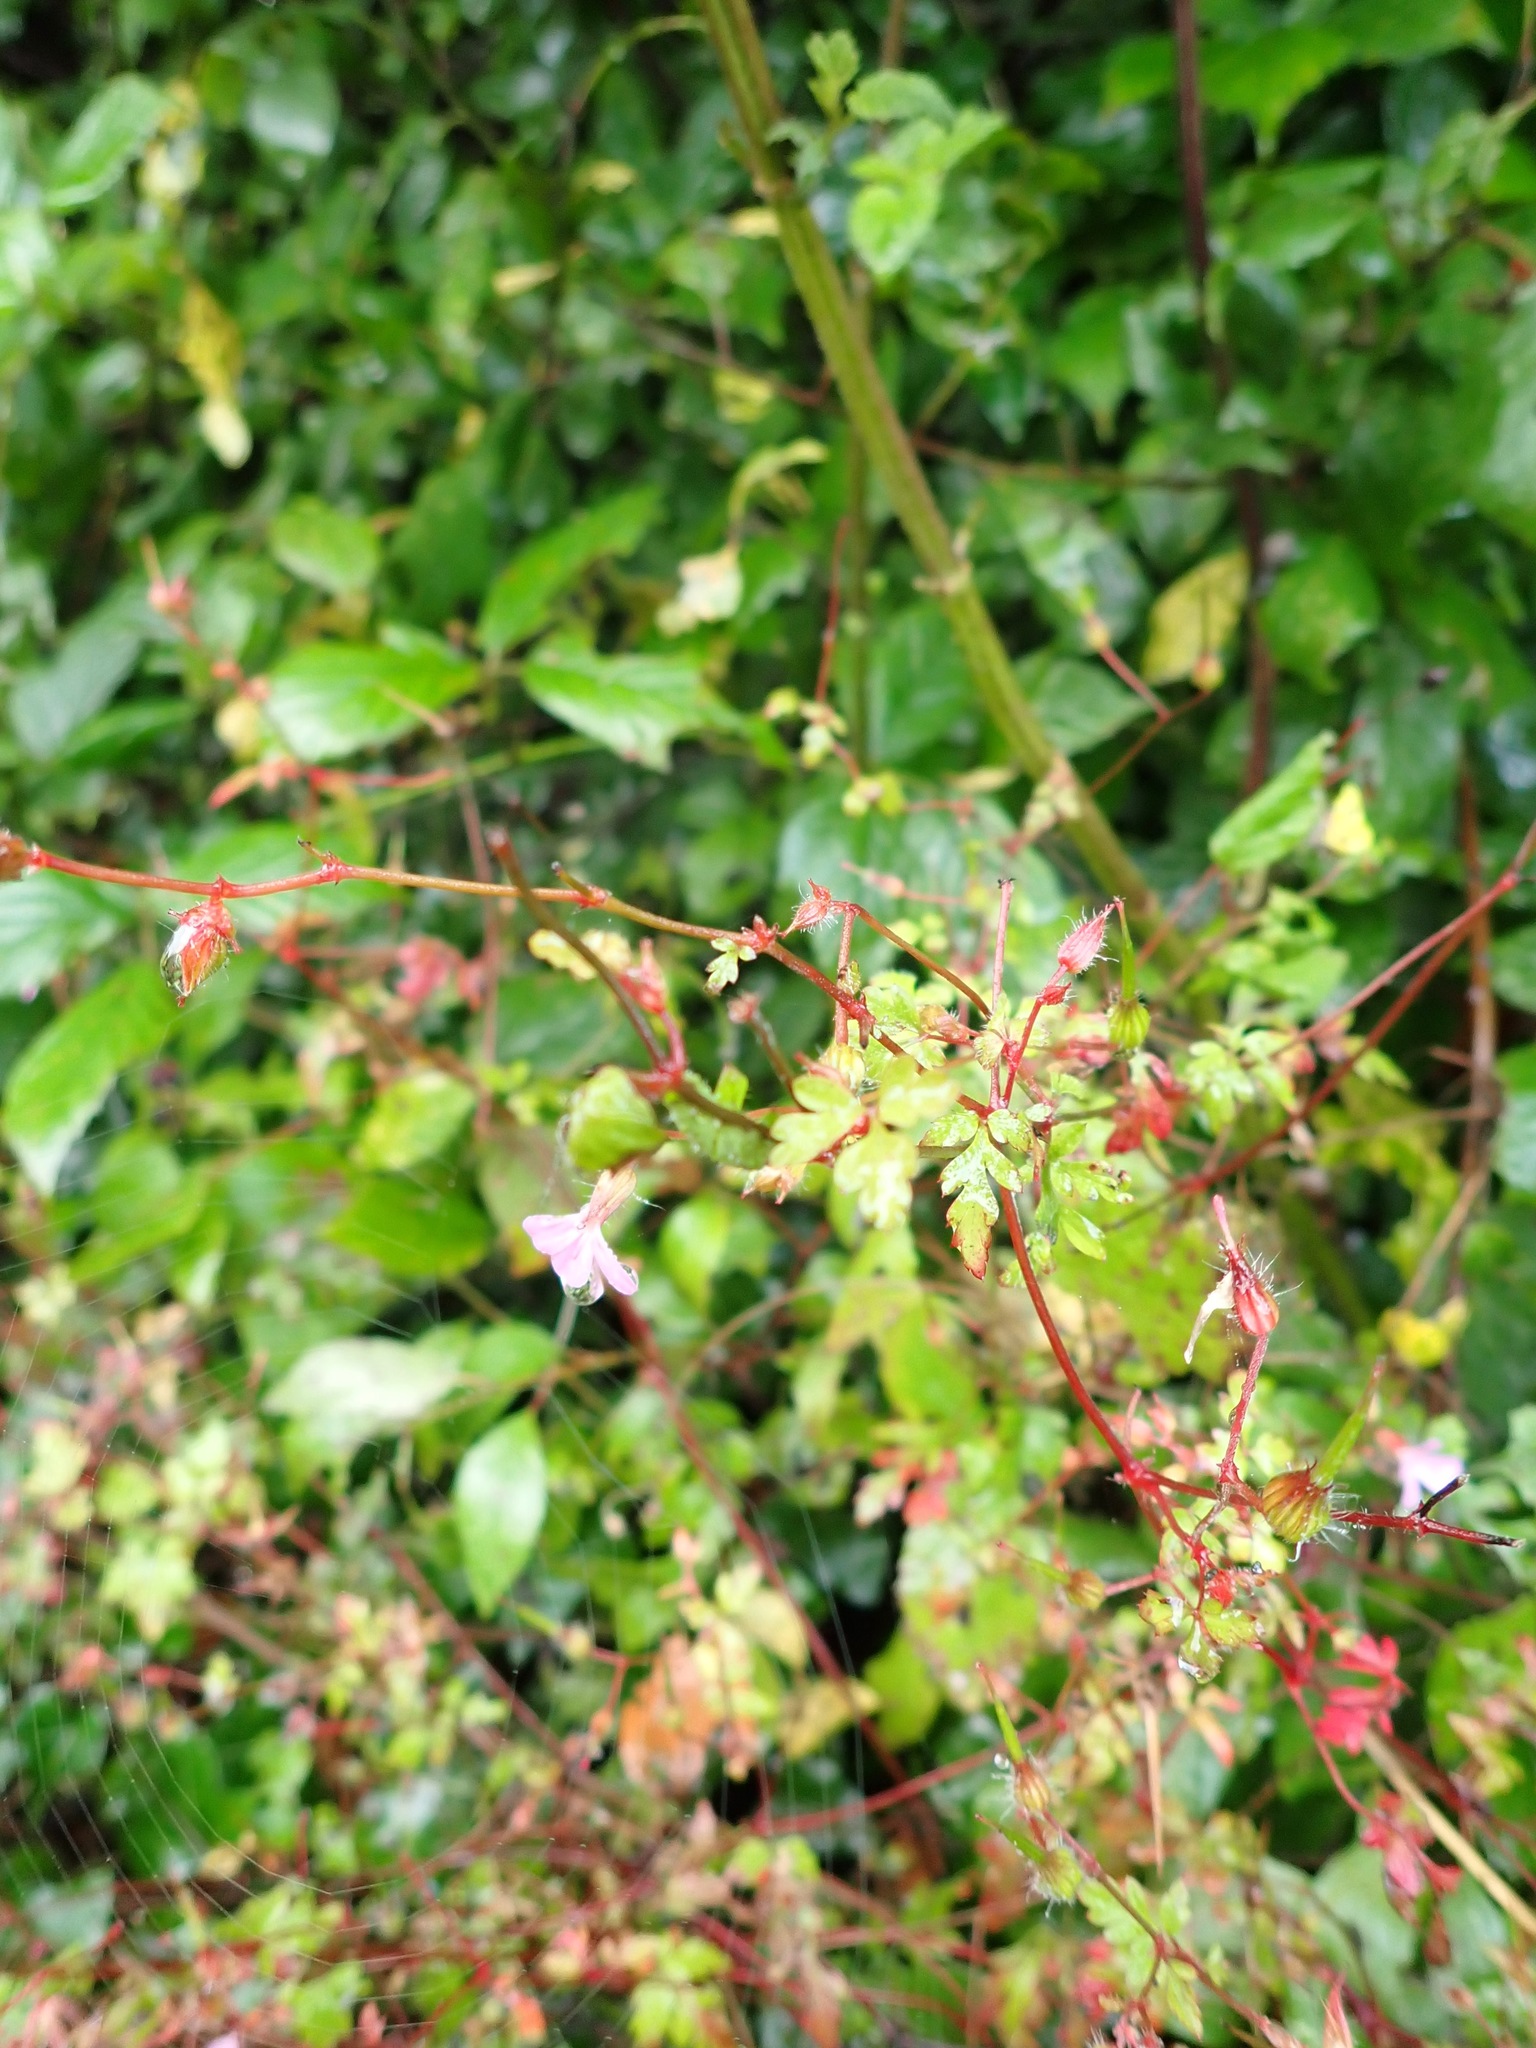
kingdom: Plantae
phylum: Tracheophyta
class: Magnoliopsida
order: Geraniales
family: Geraniaceae
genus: Geranium
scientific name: Geranium robertianum
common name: Herb-robert
